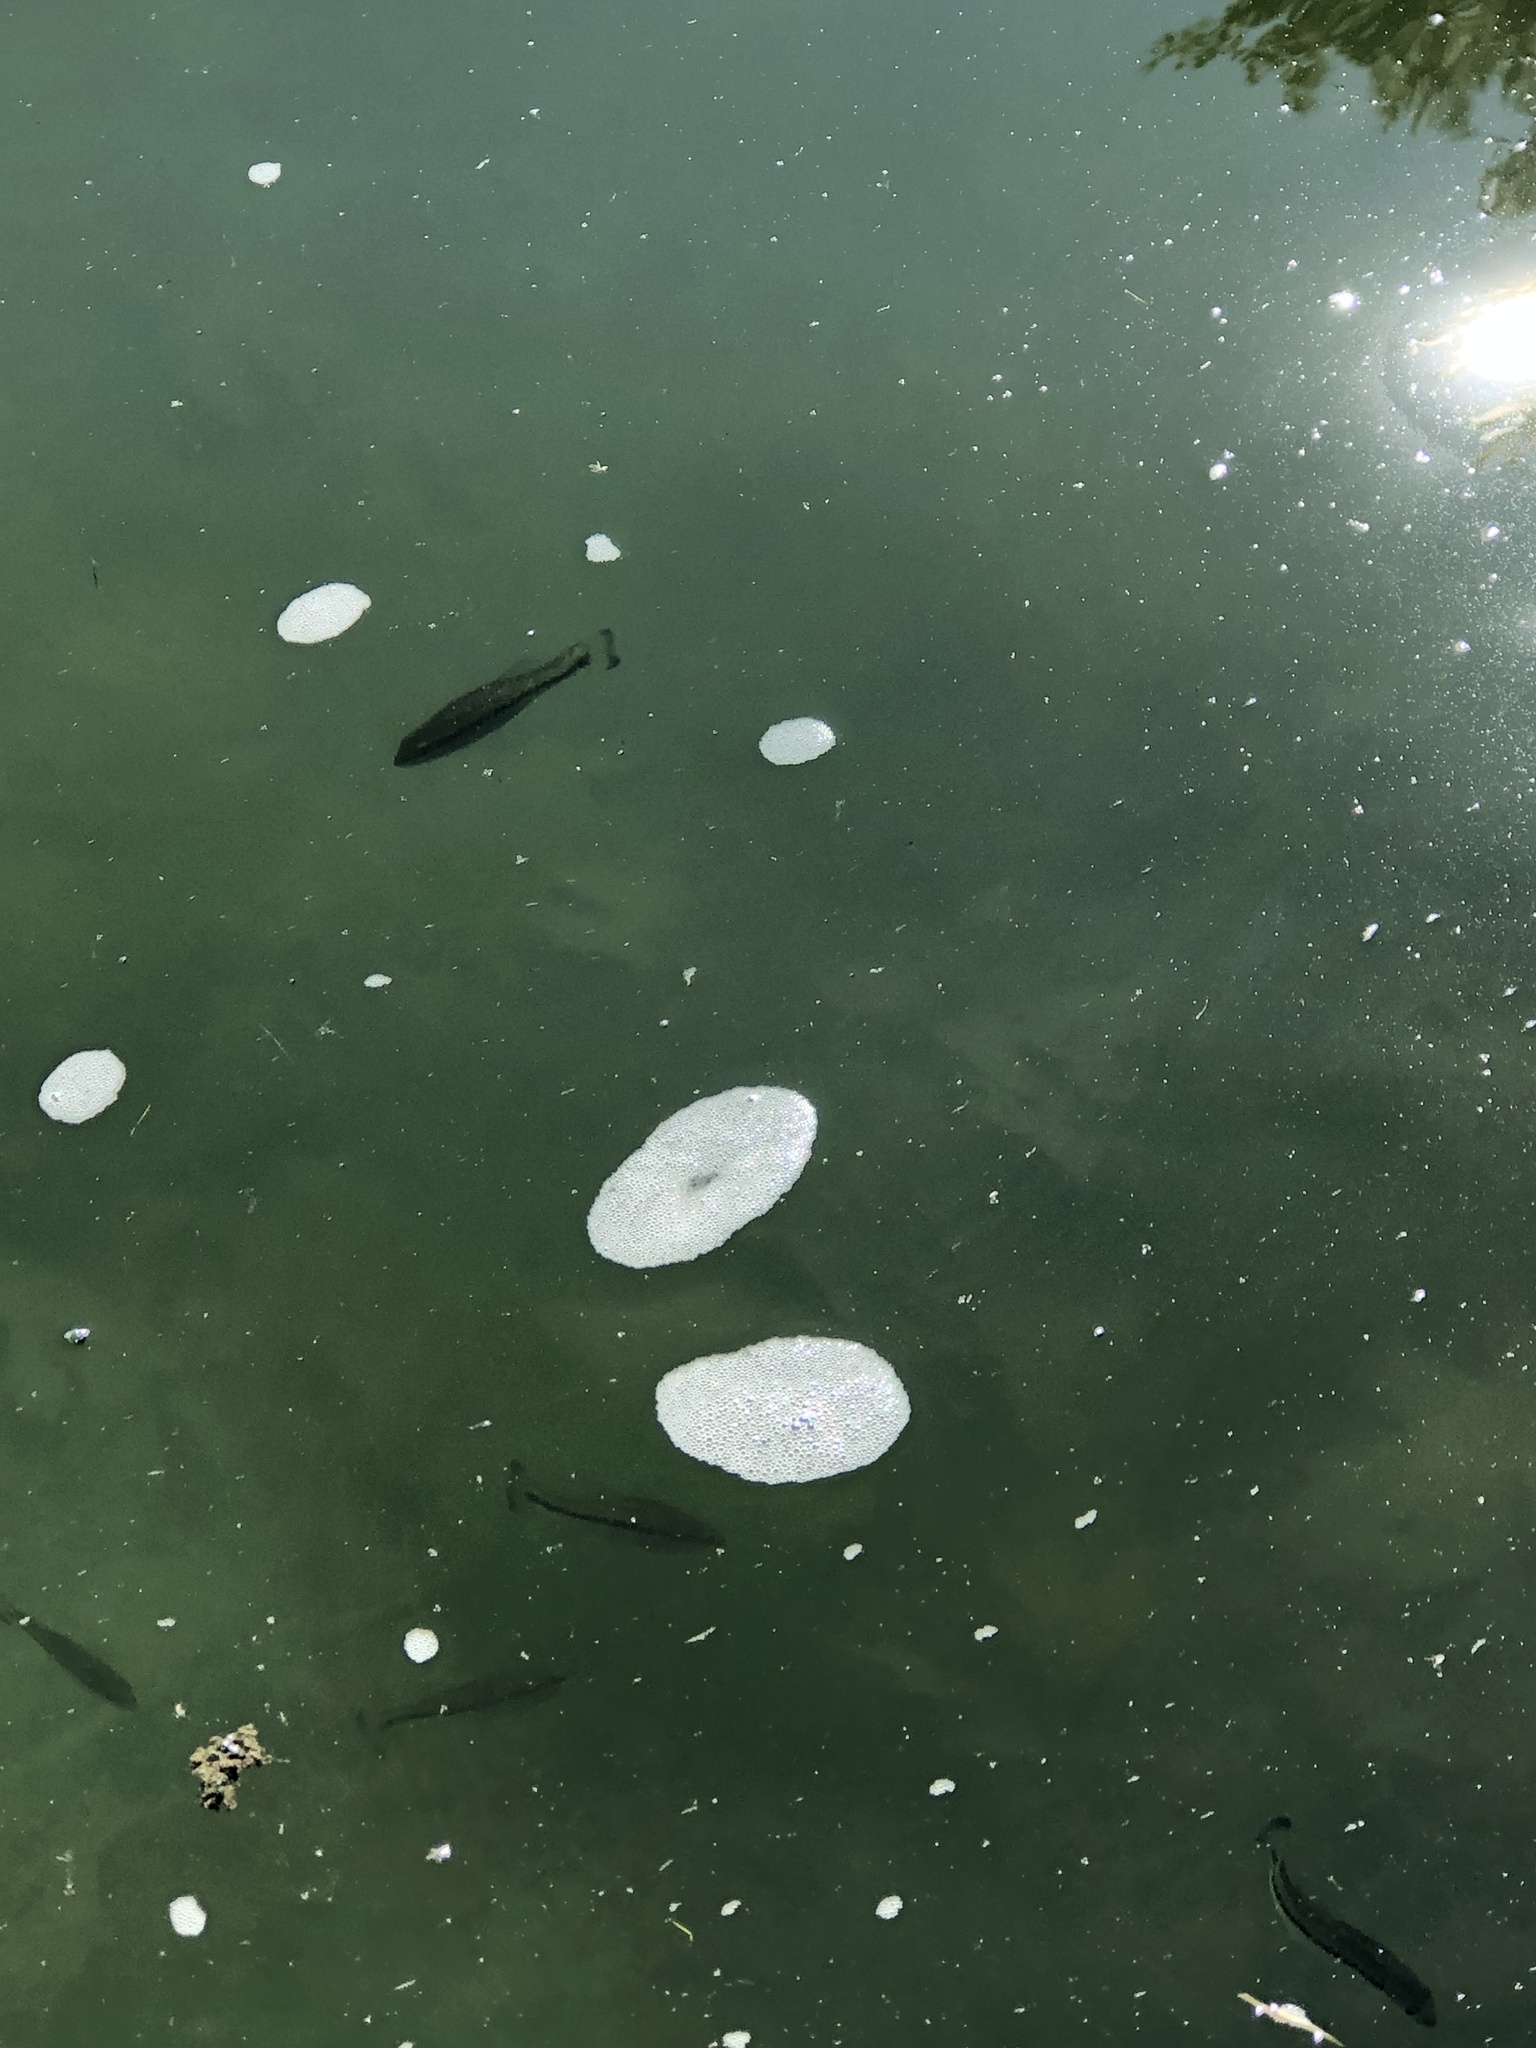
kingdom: Animalia
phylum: Chordata
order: Perciformes
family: Centrarchidae
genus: Micropterus
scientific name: Micropterus
